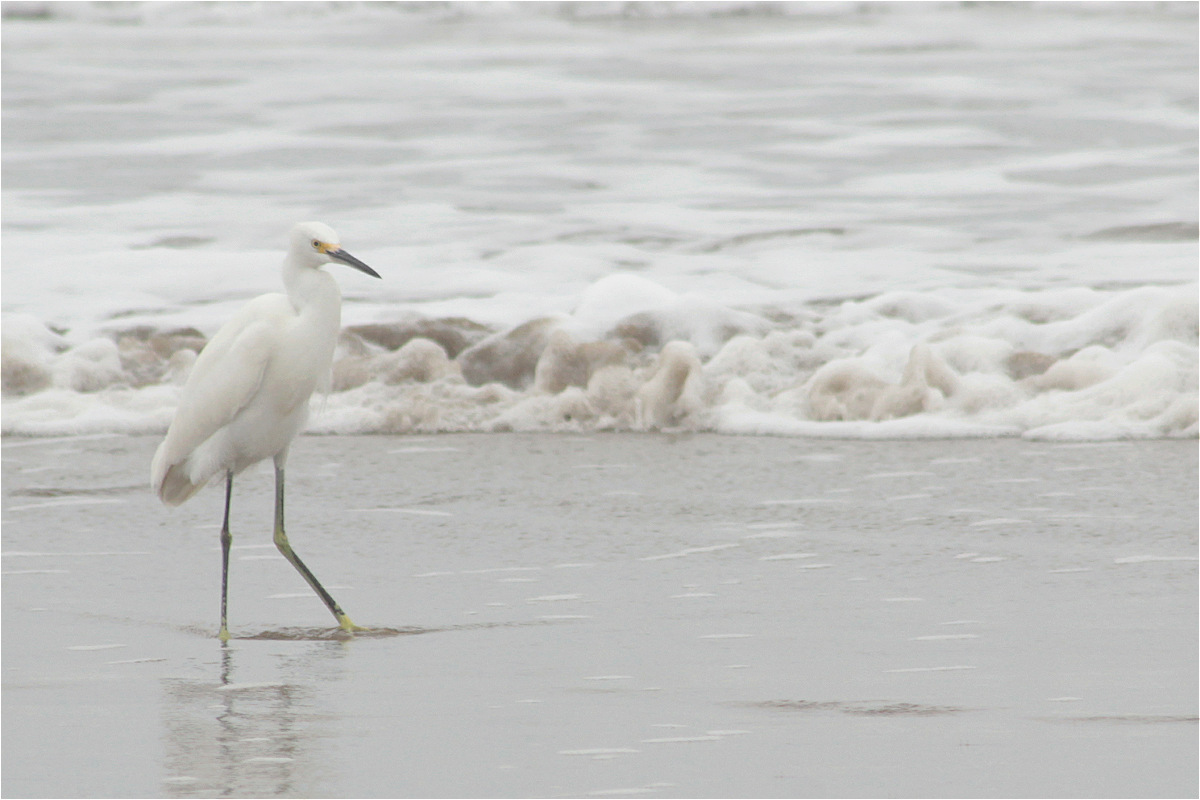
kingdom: Animalia
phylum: Chordata
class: Aves
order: Pelecaniformes
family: Ardeidae
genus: Egretta
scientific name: Egretta thula
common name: Snowy egret
